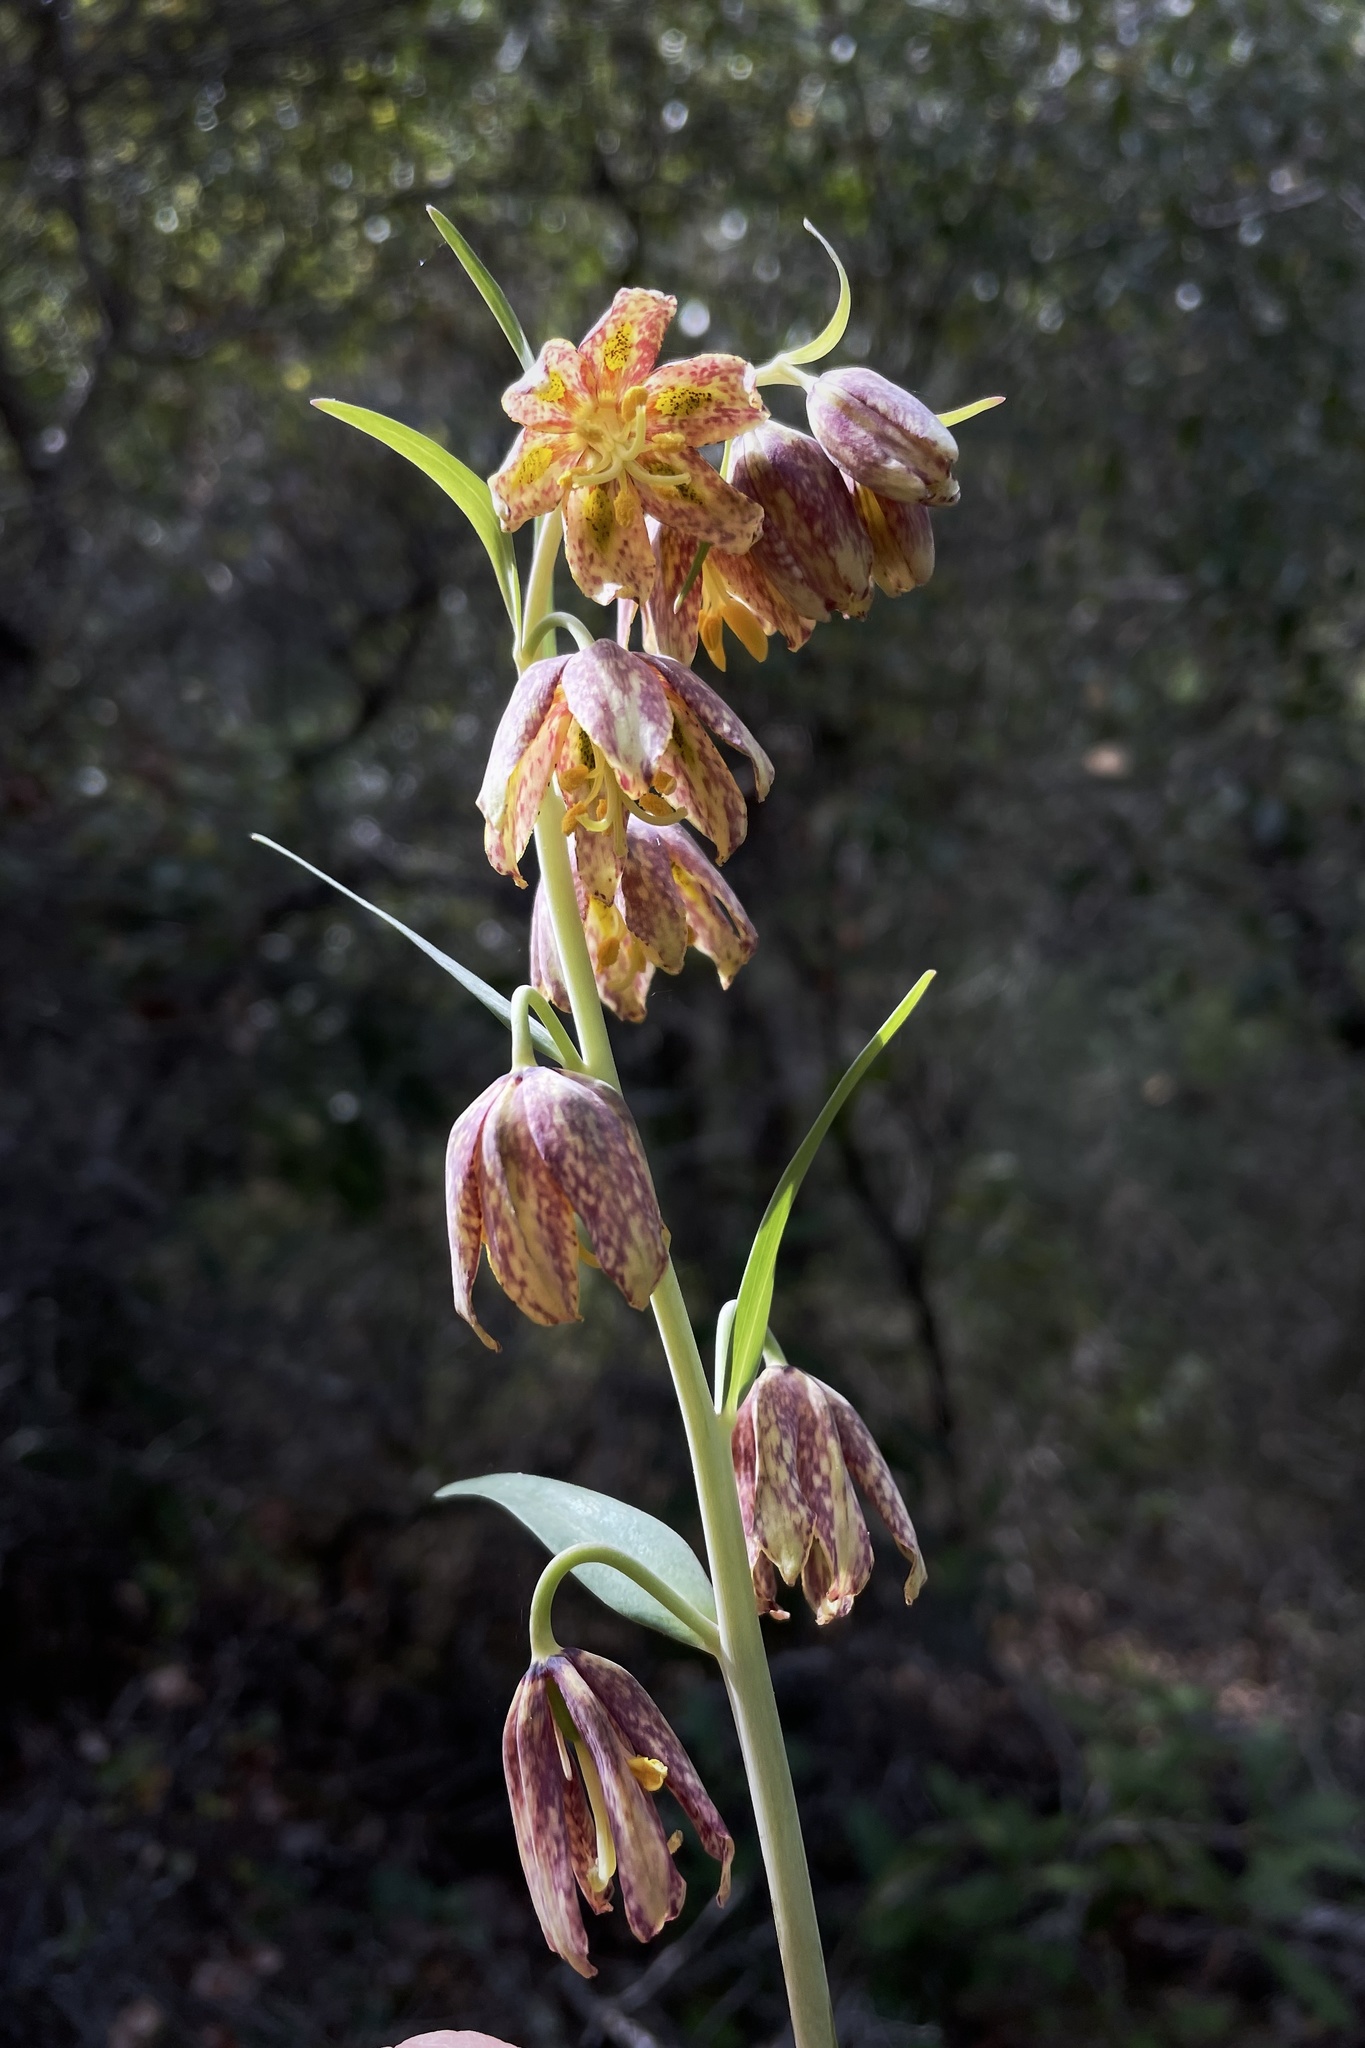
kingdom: Plantae
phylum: Tracheophyta
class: Liliopsida
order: Liliales
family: Liliaceae
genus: Fritillaria
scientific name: Fritillaria affinis
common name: Ojai fritillary
